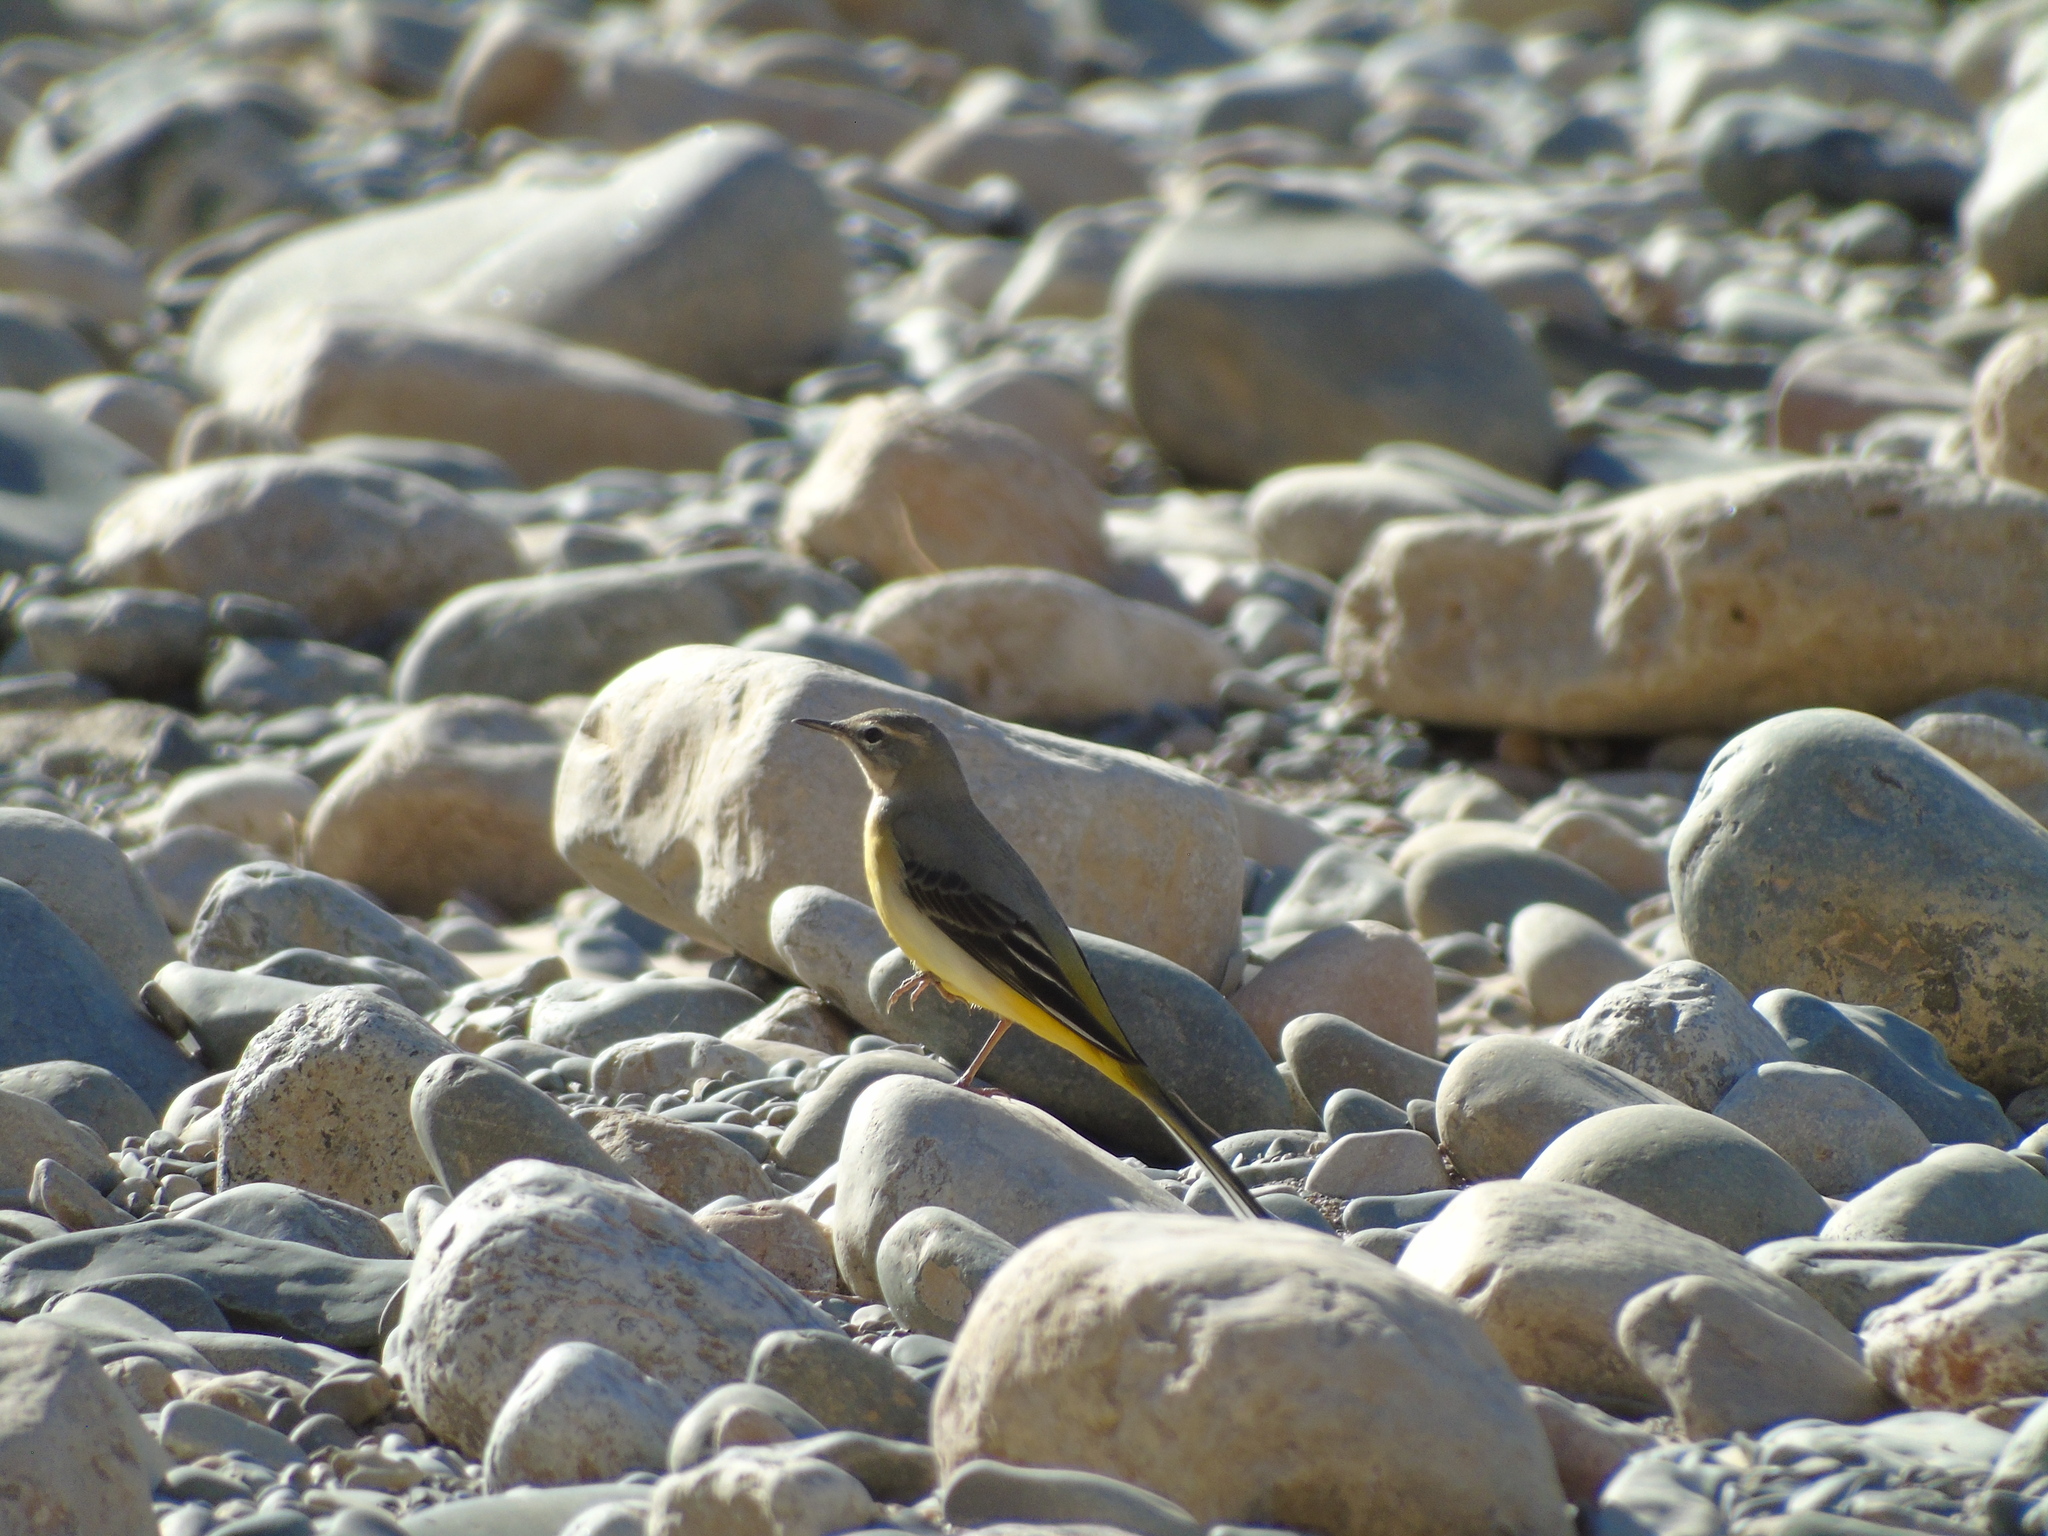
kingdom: Animalia
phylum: Chordata
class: Aves
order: Passeriformes
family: Motacillidae
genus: Motacilla
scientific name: Motacilla cinerea
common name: Grey wagtail
